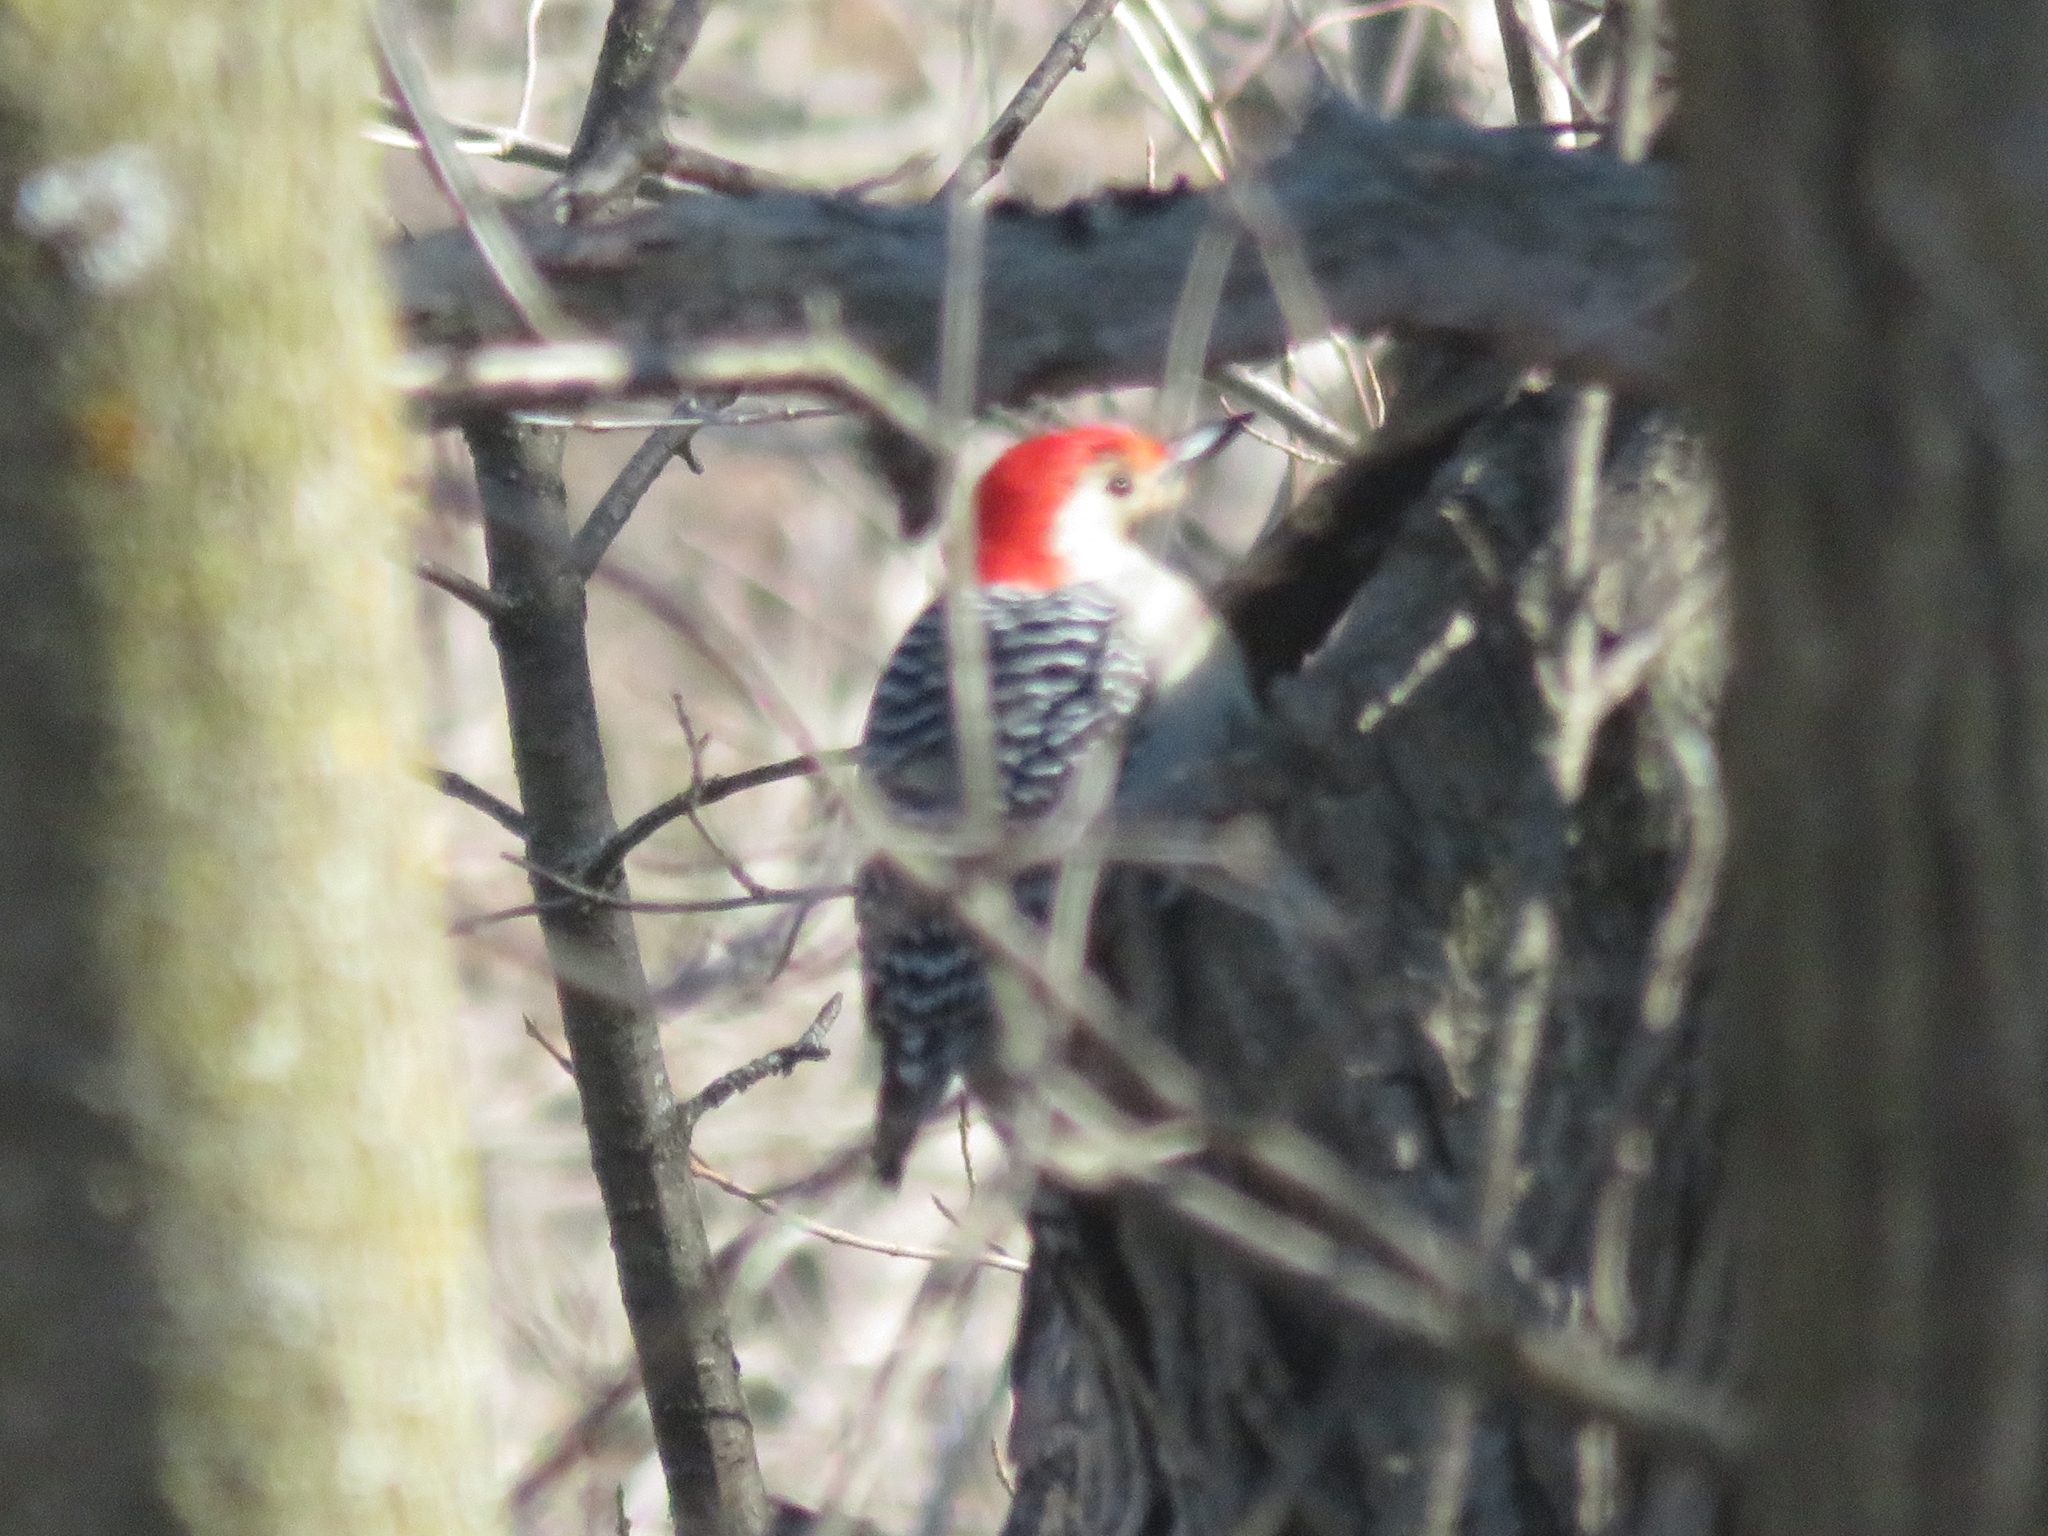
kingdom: Animalia
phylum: Chordata
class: Aves
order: Piciformes
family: Picidae
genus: Melanerpes
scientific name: Melanerpes carolinus
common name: Red-bellied woodpecker
